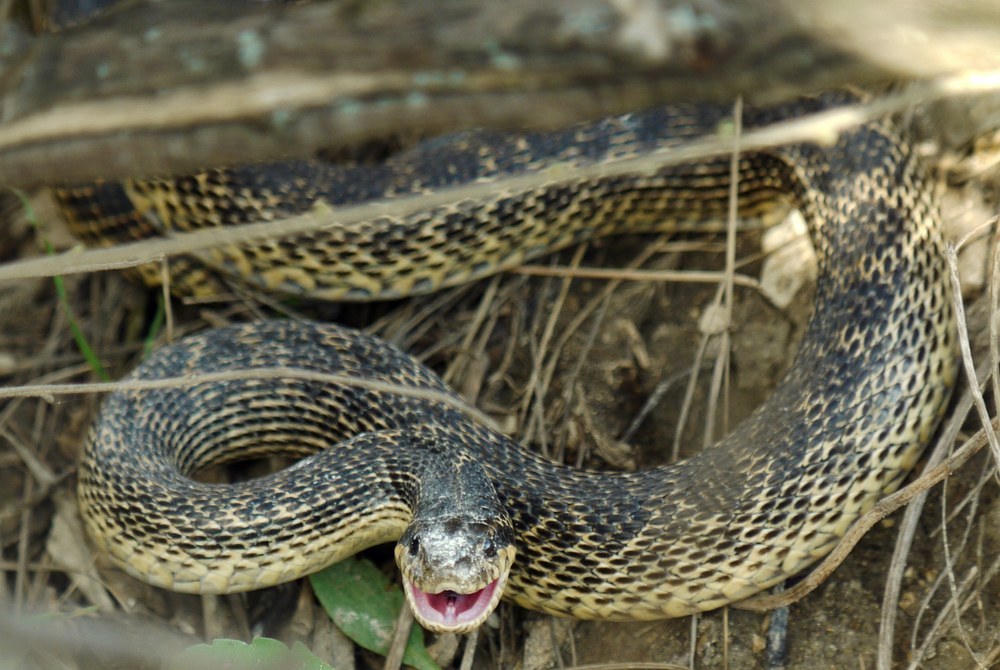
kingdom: Animalia
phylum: Chordata
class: Squamata
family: Colubridae
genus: Elaphe
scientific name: Elaphe sauromates
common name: Eastern four-lined ratsnake
